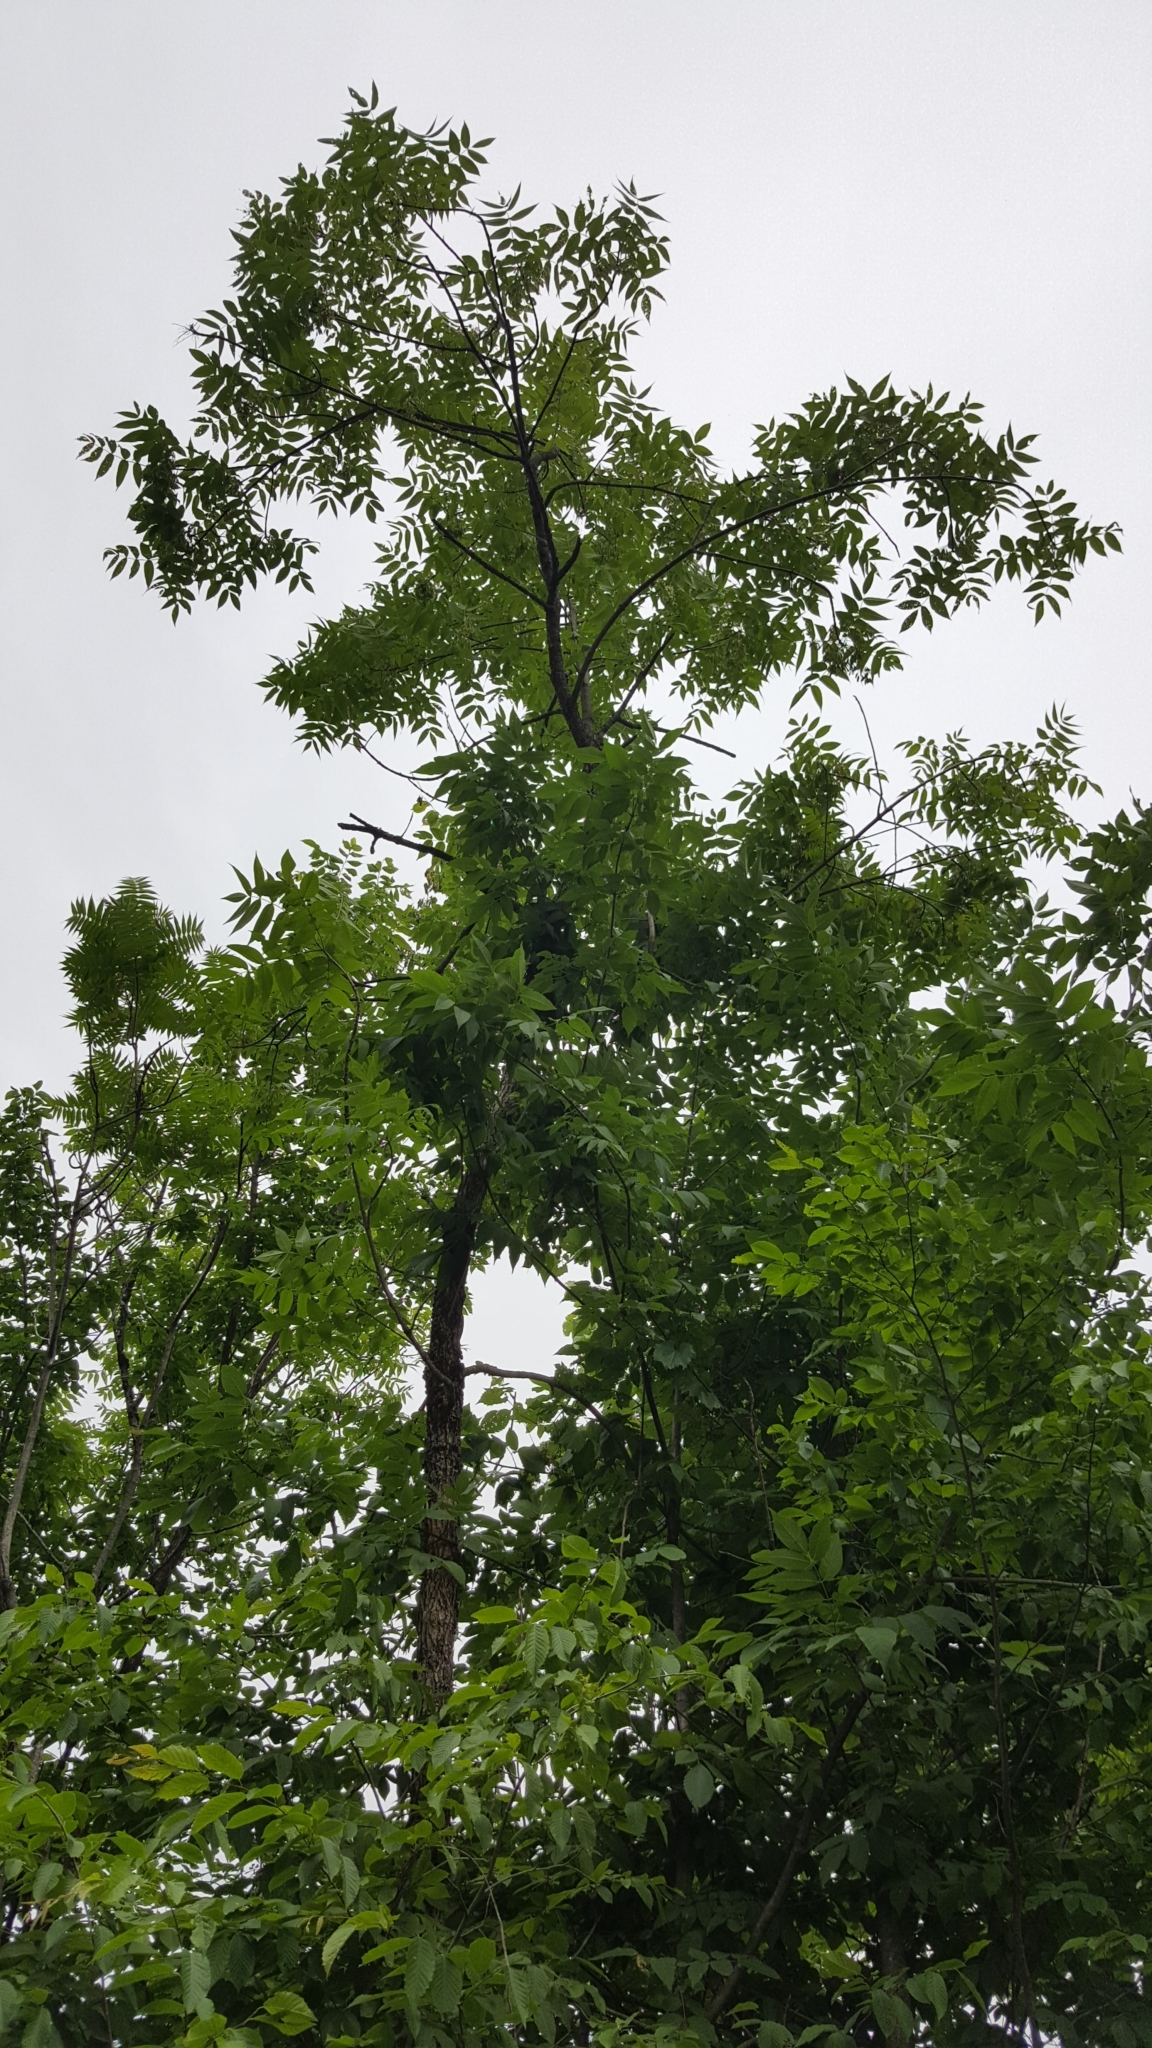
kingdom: Plantae
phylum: Tracheophyta
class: Magnoliopsida
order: Lamiales
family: Oleaceae
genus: Fraxinus
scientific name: Fraxinus nigra
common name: Black ash
